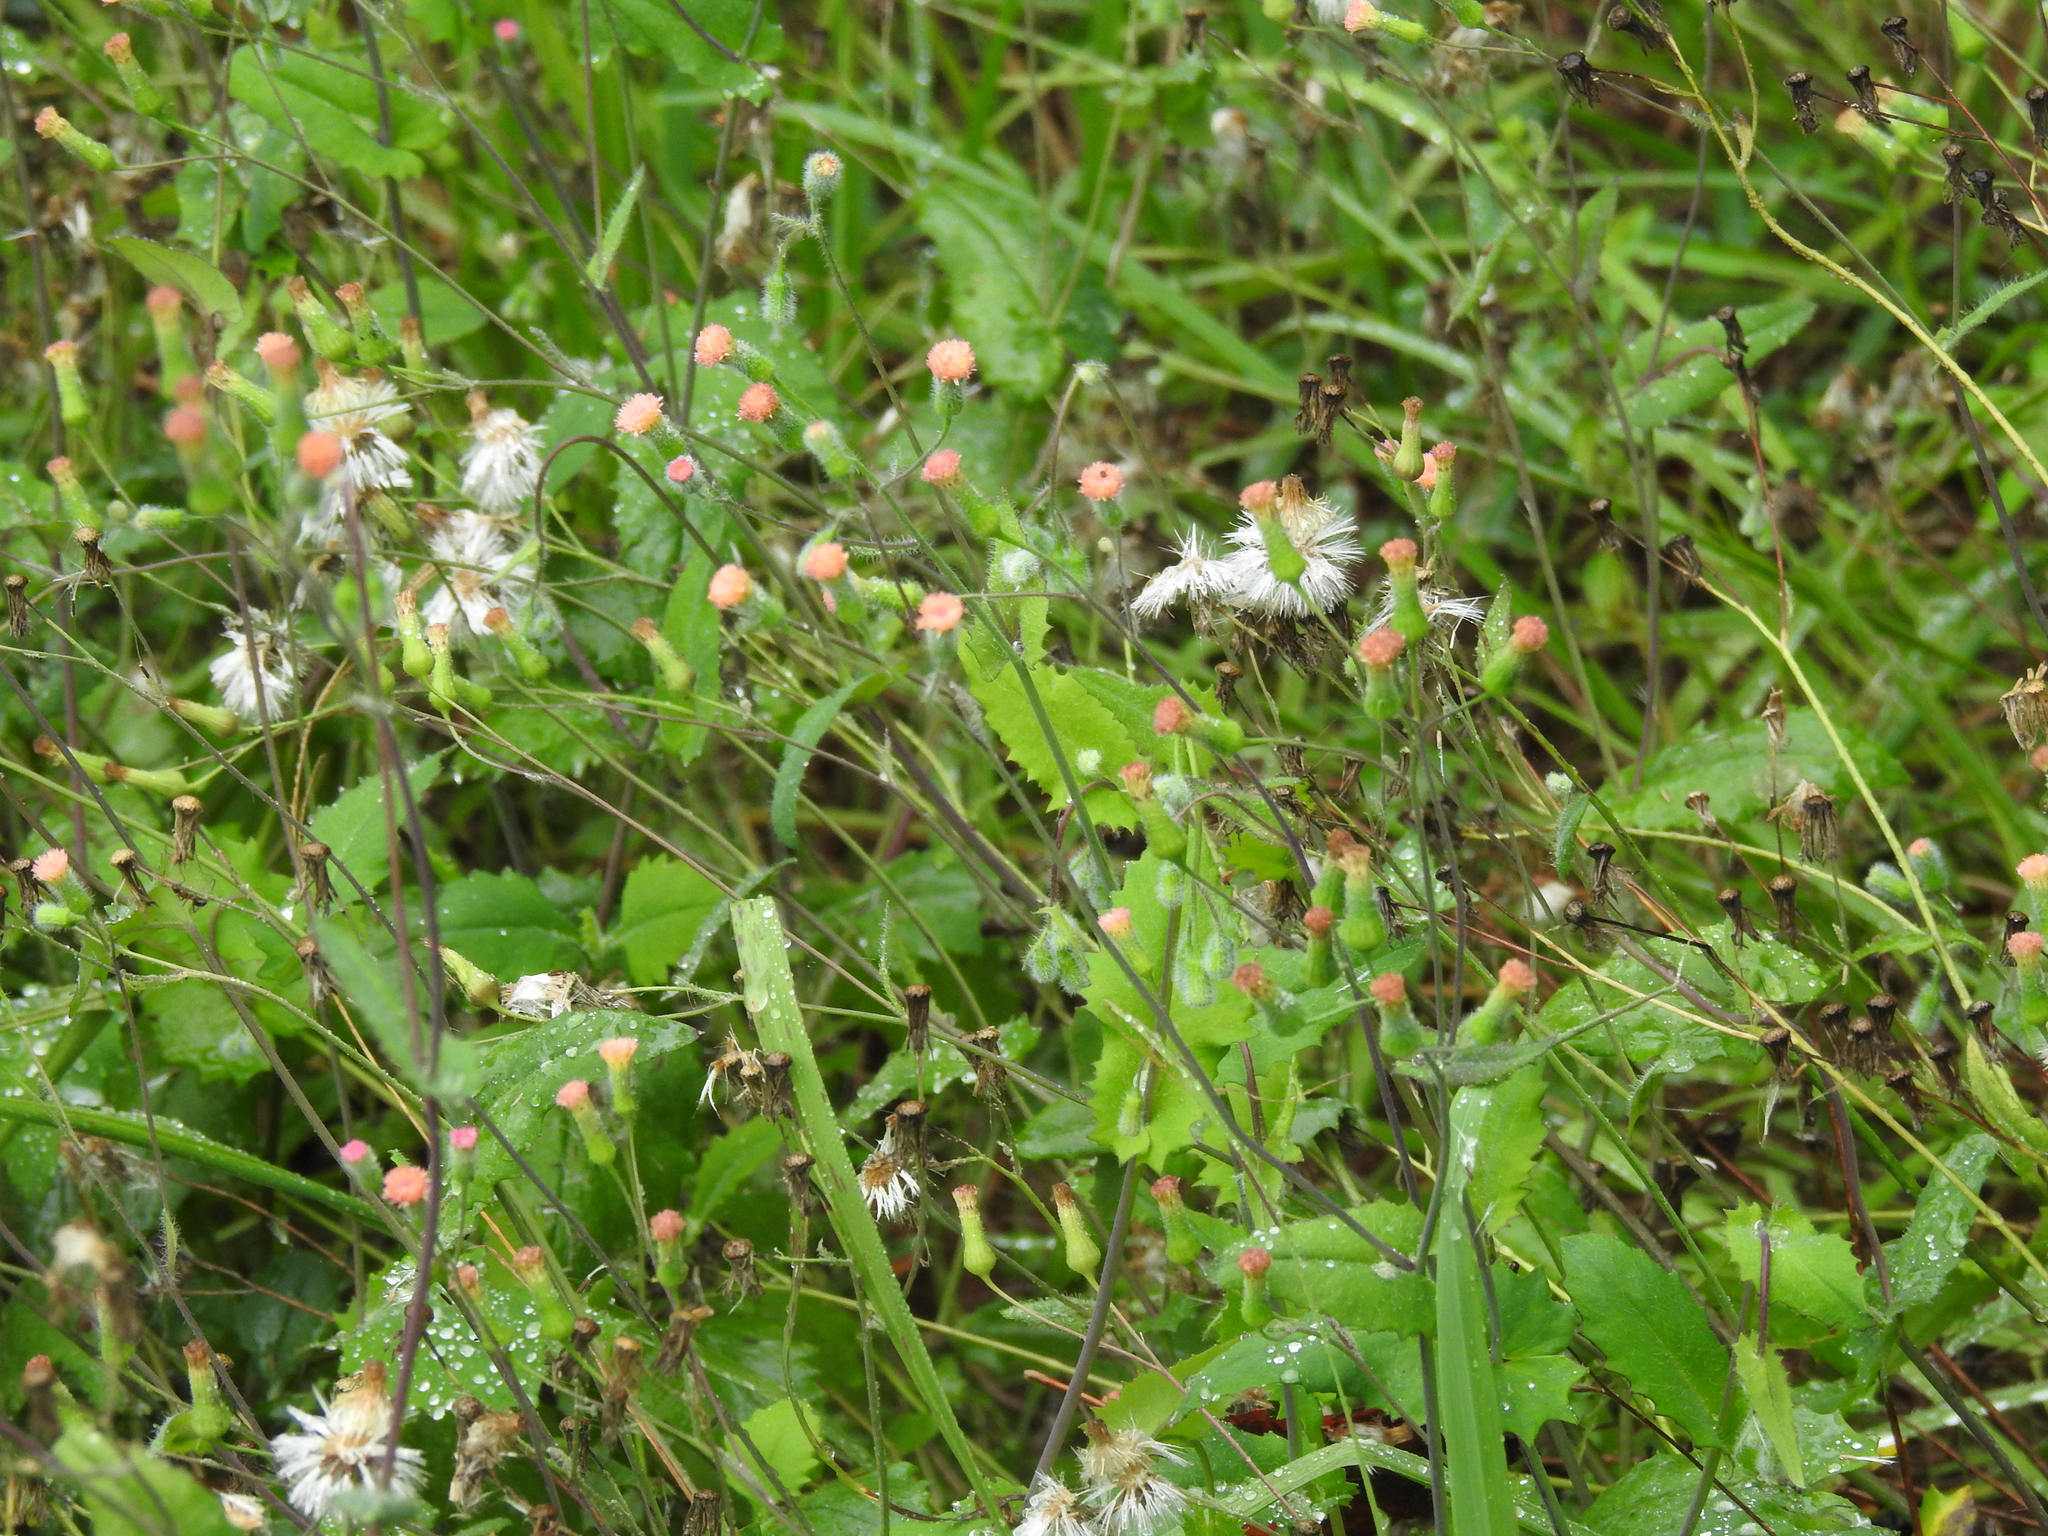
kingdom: Plantae
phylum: Tracheophyta
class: Magnoliopsida
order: Asterales
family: Asteraceae
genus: Emilia
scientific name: Emilia fosbergii
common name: Florida tasselflower
